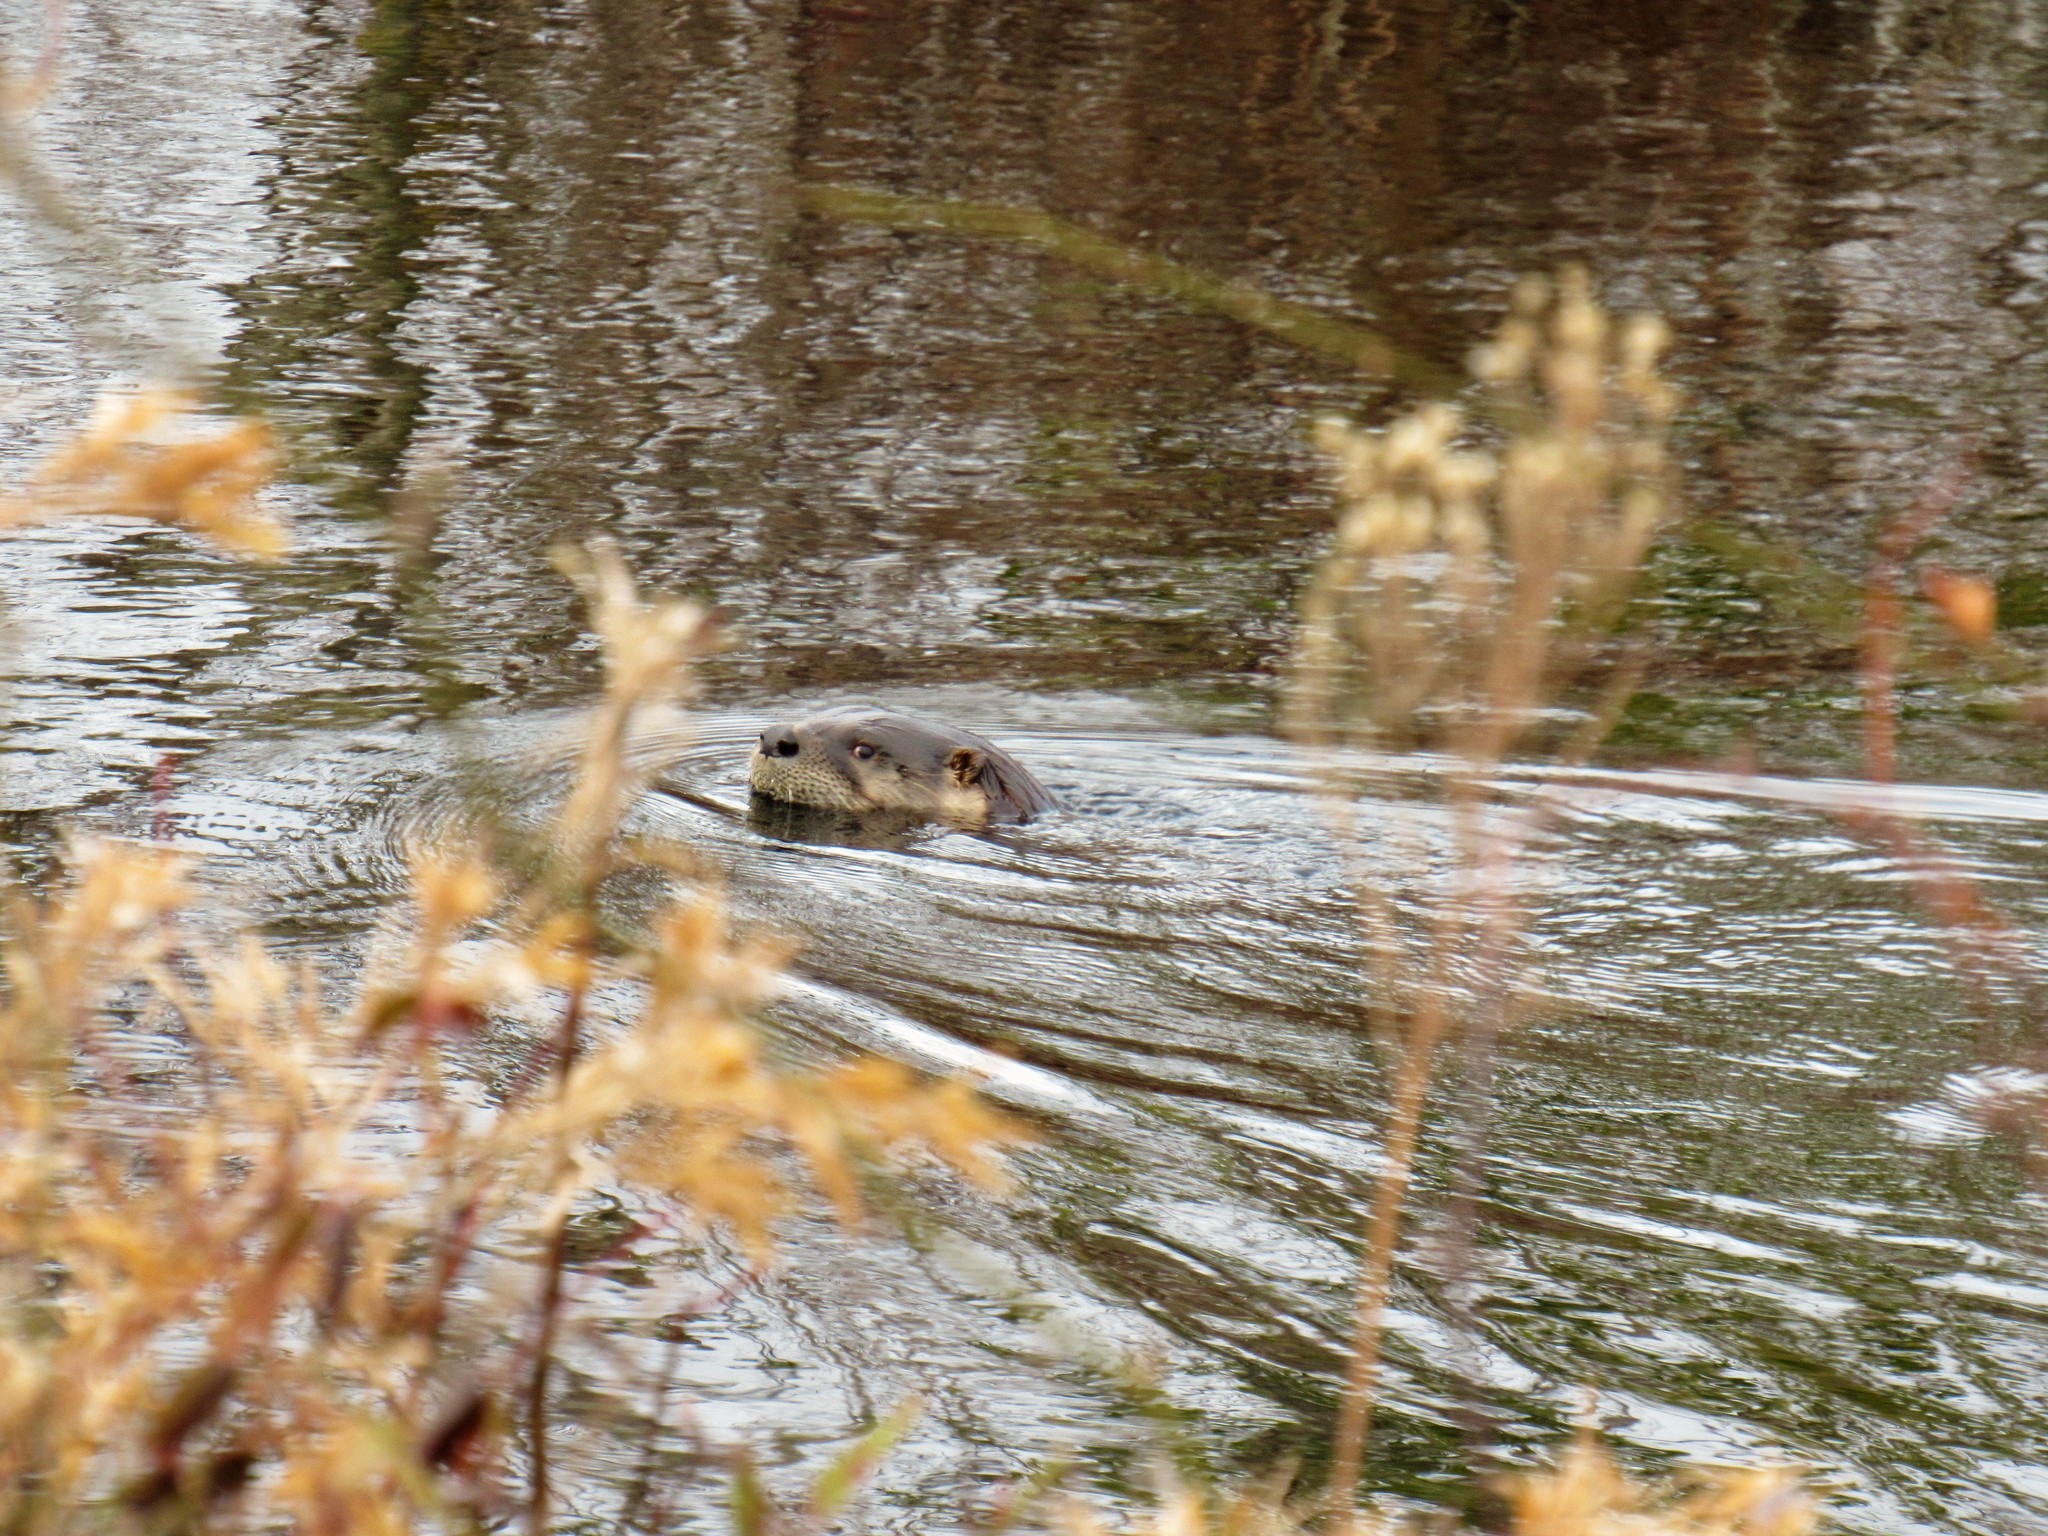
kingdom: Animalia
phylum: Chordata
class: Mammalia
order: Carnivora
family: Mustelidae
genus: Lontra
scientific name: Lontra canadensis
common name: North american river otter
